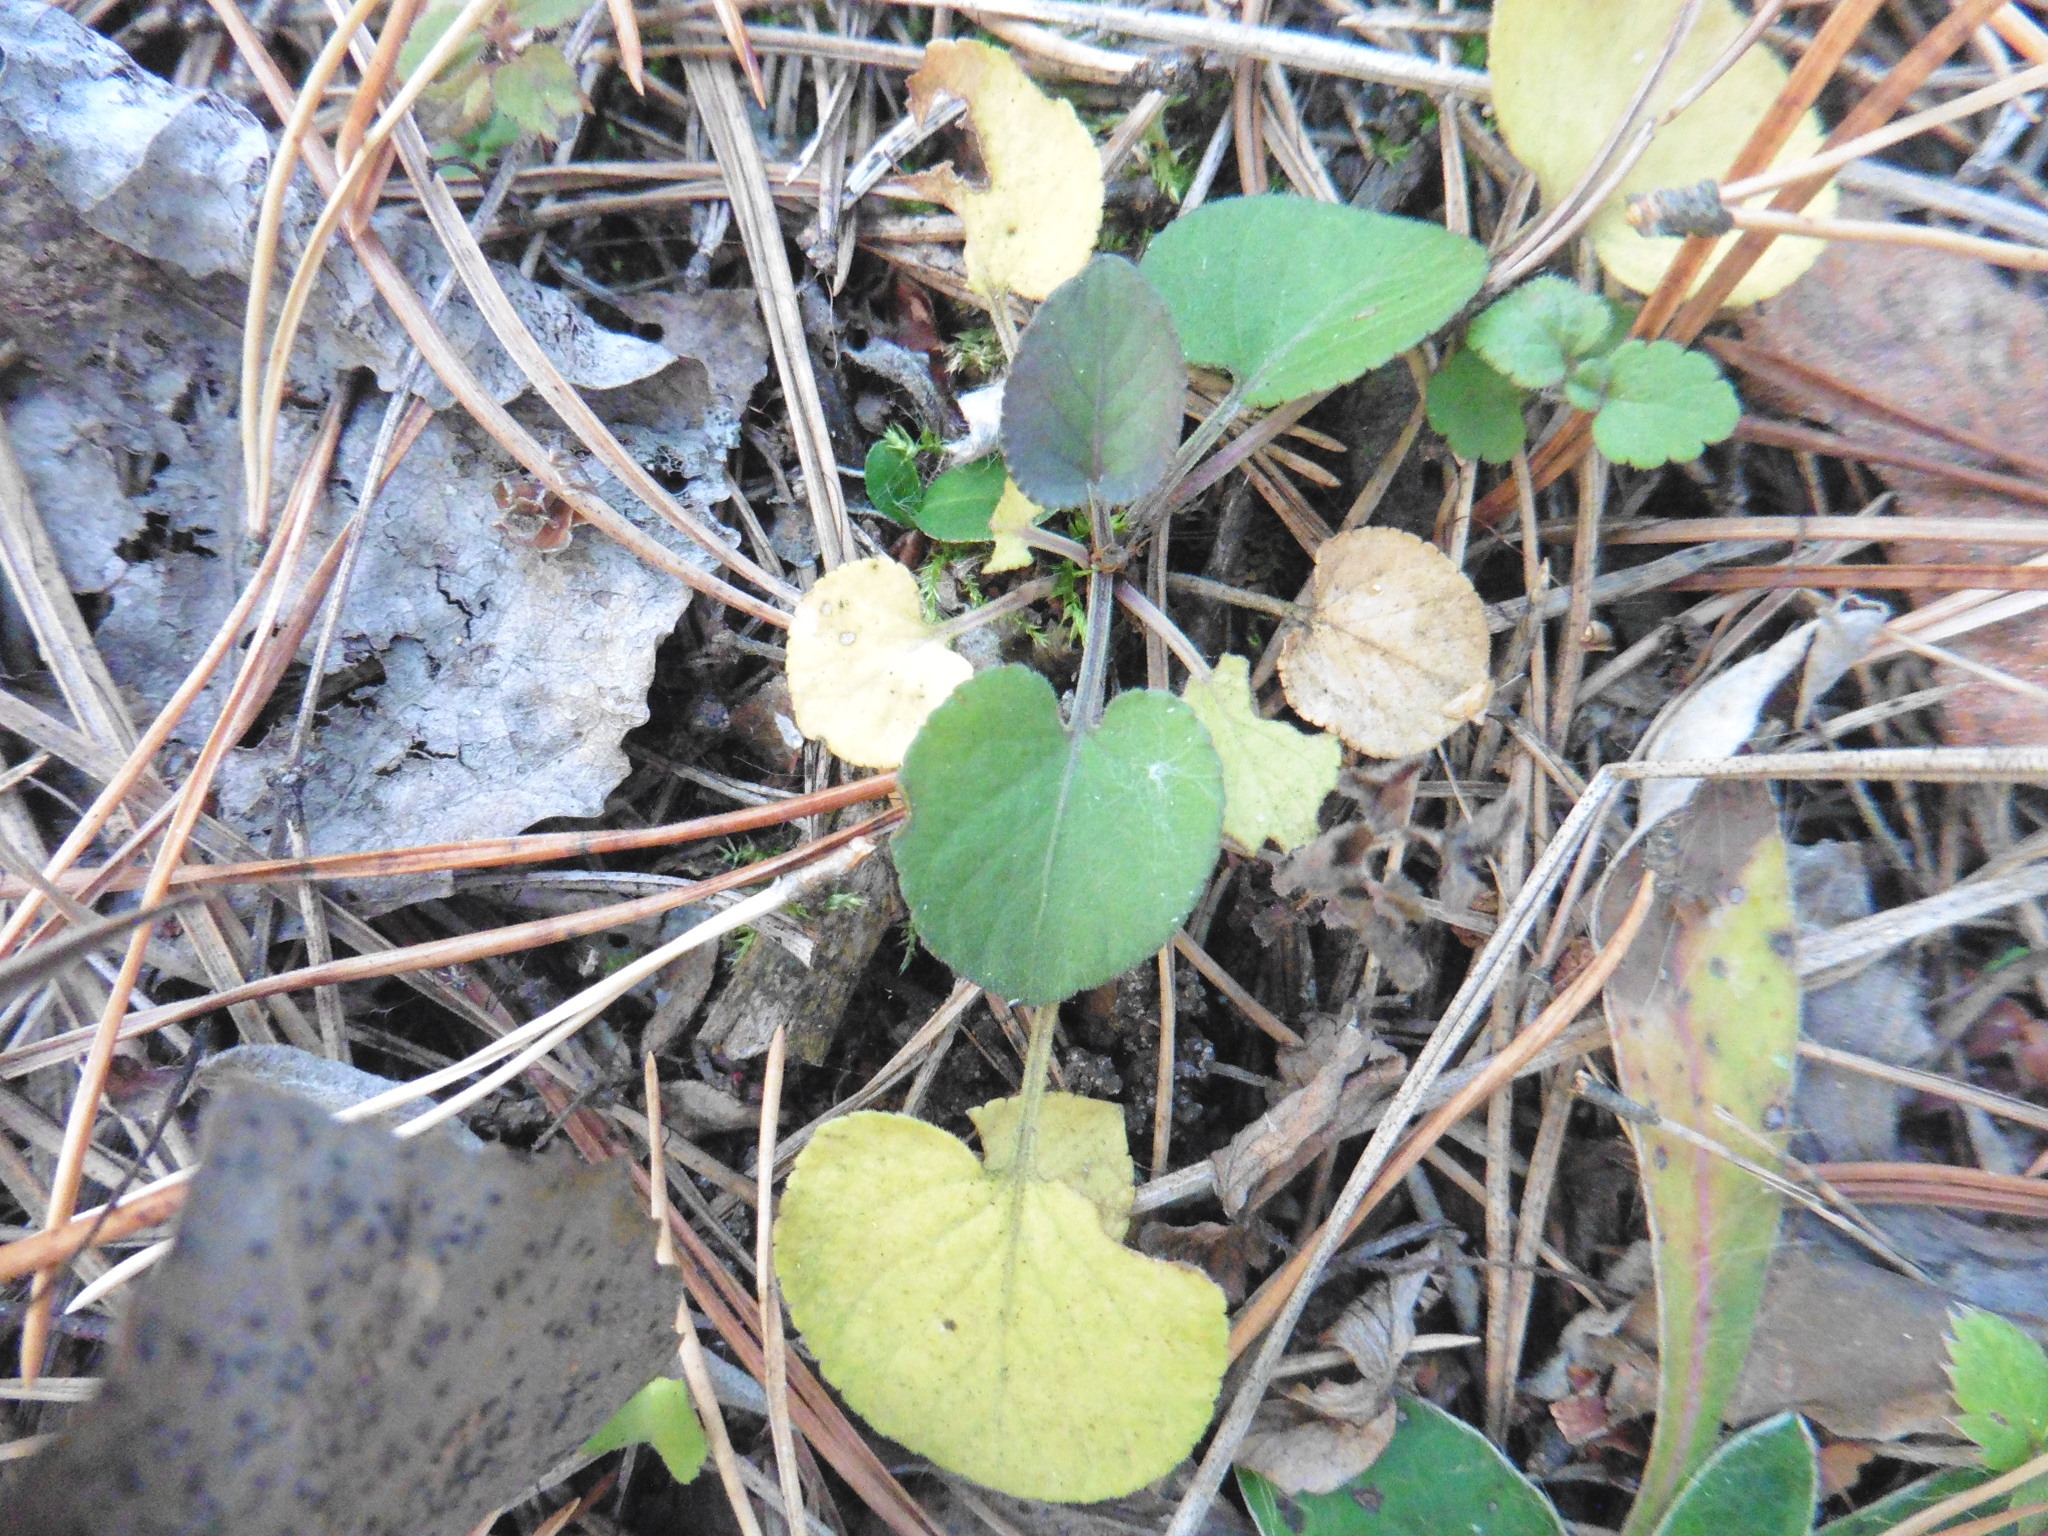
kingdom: Plantae
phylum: Tracheophyta
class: Magnoliopsida
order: Malpighiales
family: Violaceae
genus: Viola
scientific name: Viola rupestris
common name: Teesdale violet
